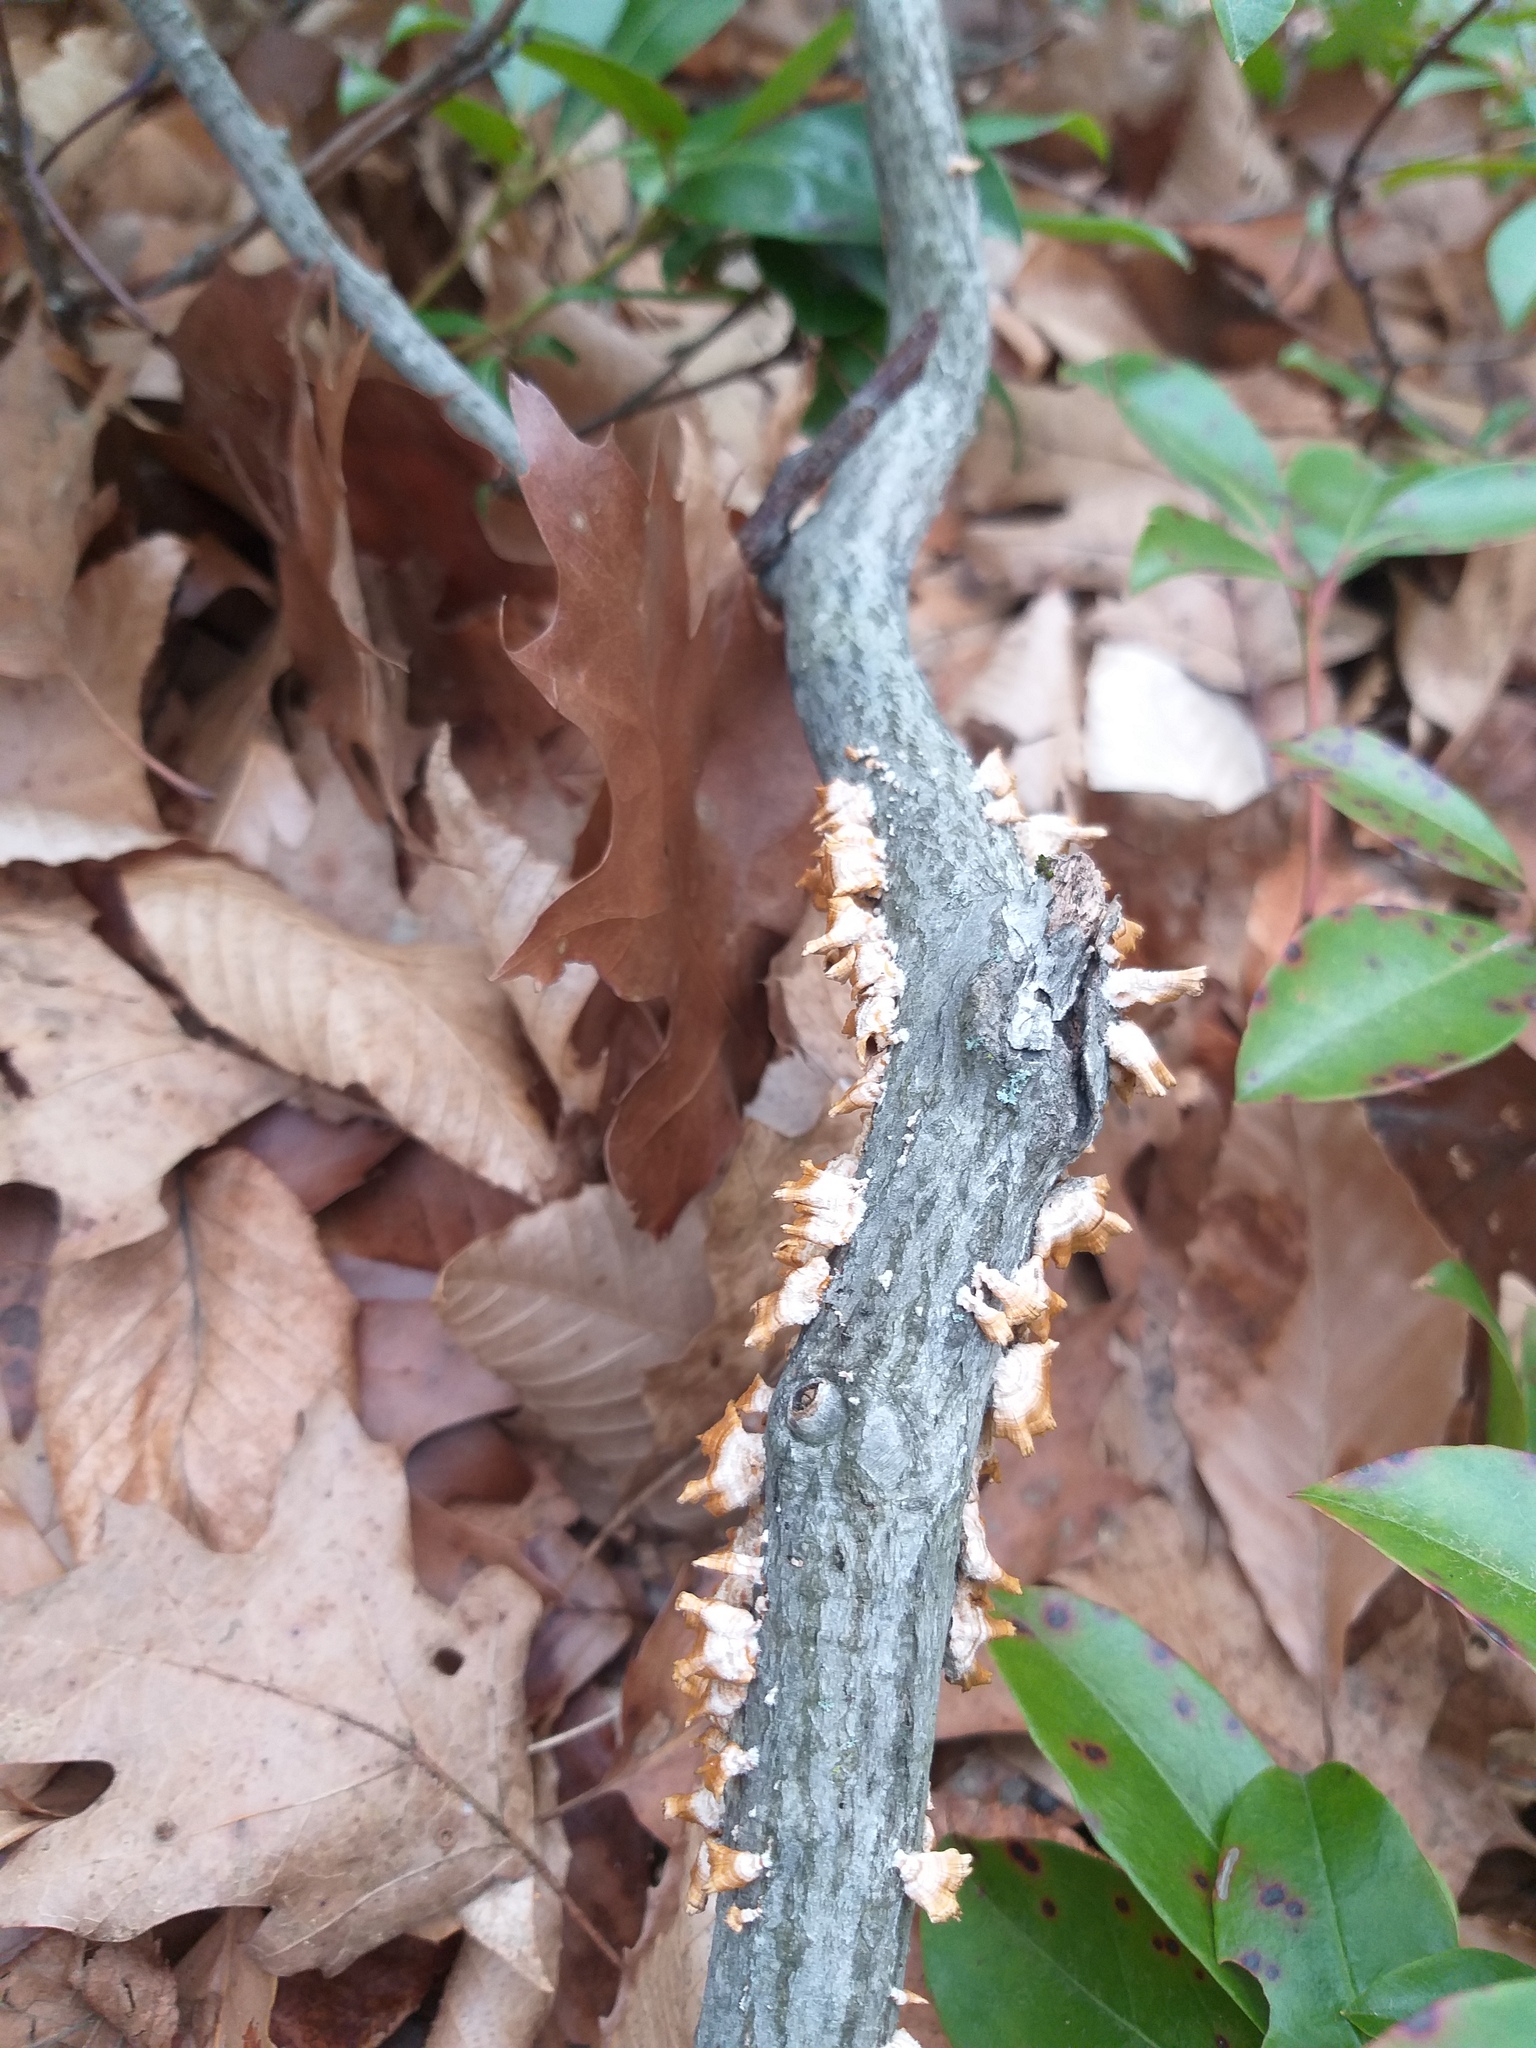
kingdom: Fungi
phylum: Basidiomycota
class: Agaricomycetes
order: Russulales
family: Stereaceae
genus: Stereum
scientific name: Stereum complicatum
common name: Crowded parchment
